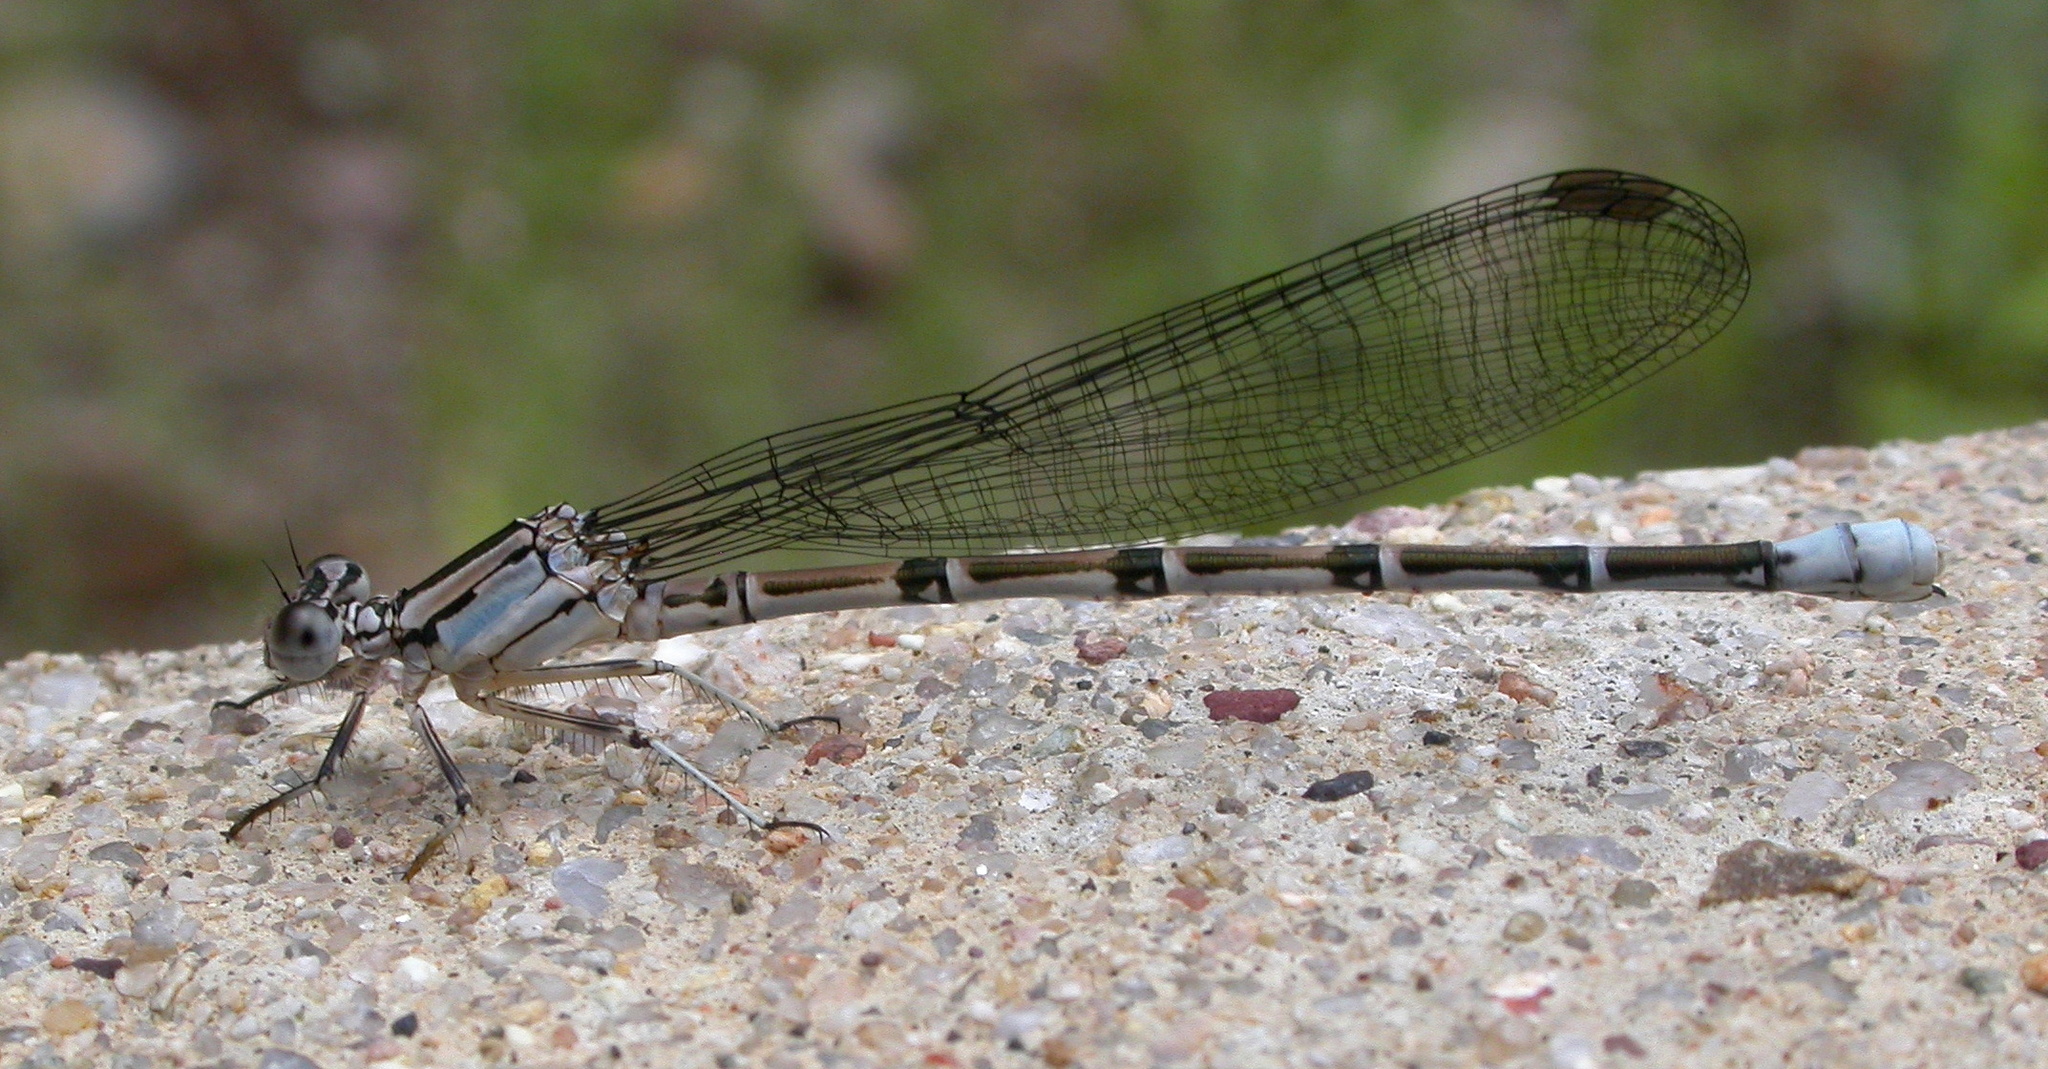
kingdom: Animalia
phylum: Arthropoda
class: Insecta
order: Odonata
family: Coenagrionidae
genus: Argia
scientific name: Argia tonto
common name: Tonto dancer
